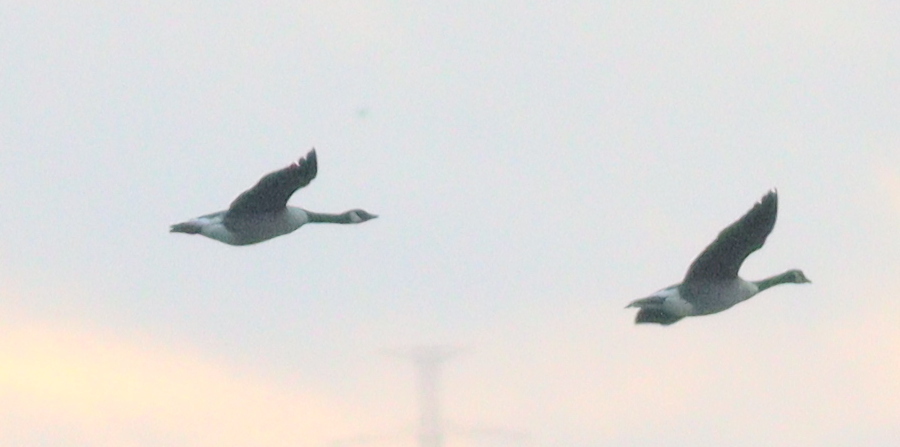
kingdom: Animalia
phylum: Chordata
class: Aves
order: Anseriformes
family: Anatidae
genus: Branta
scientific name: Branta canadensis
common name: Canada goose
